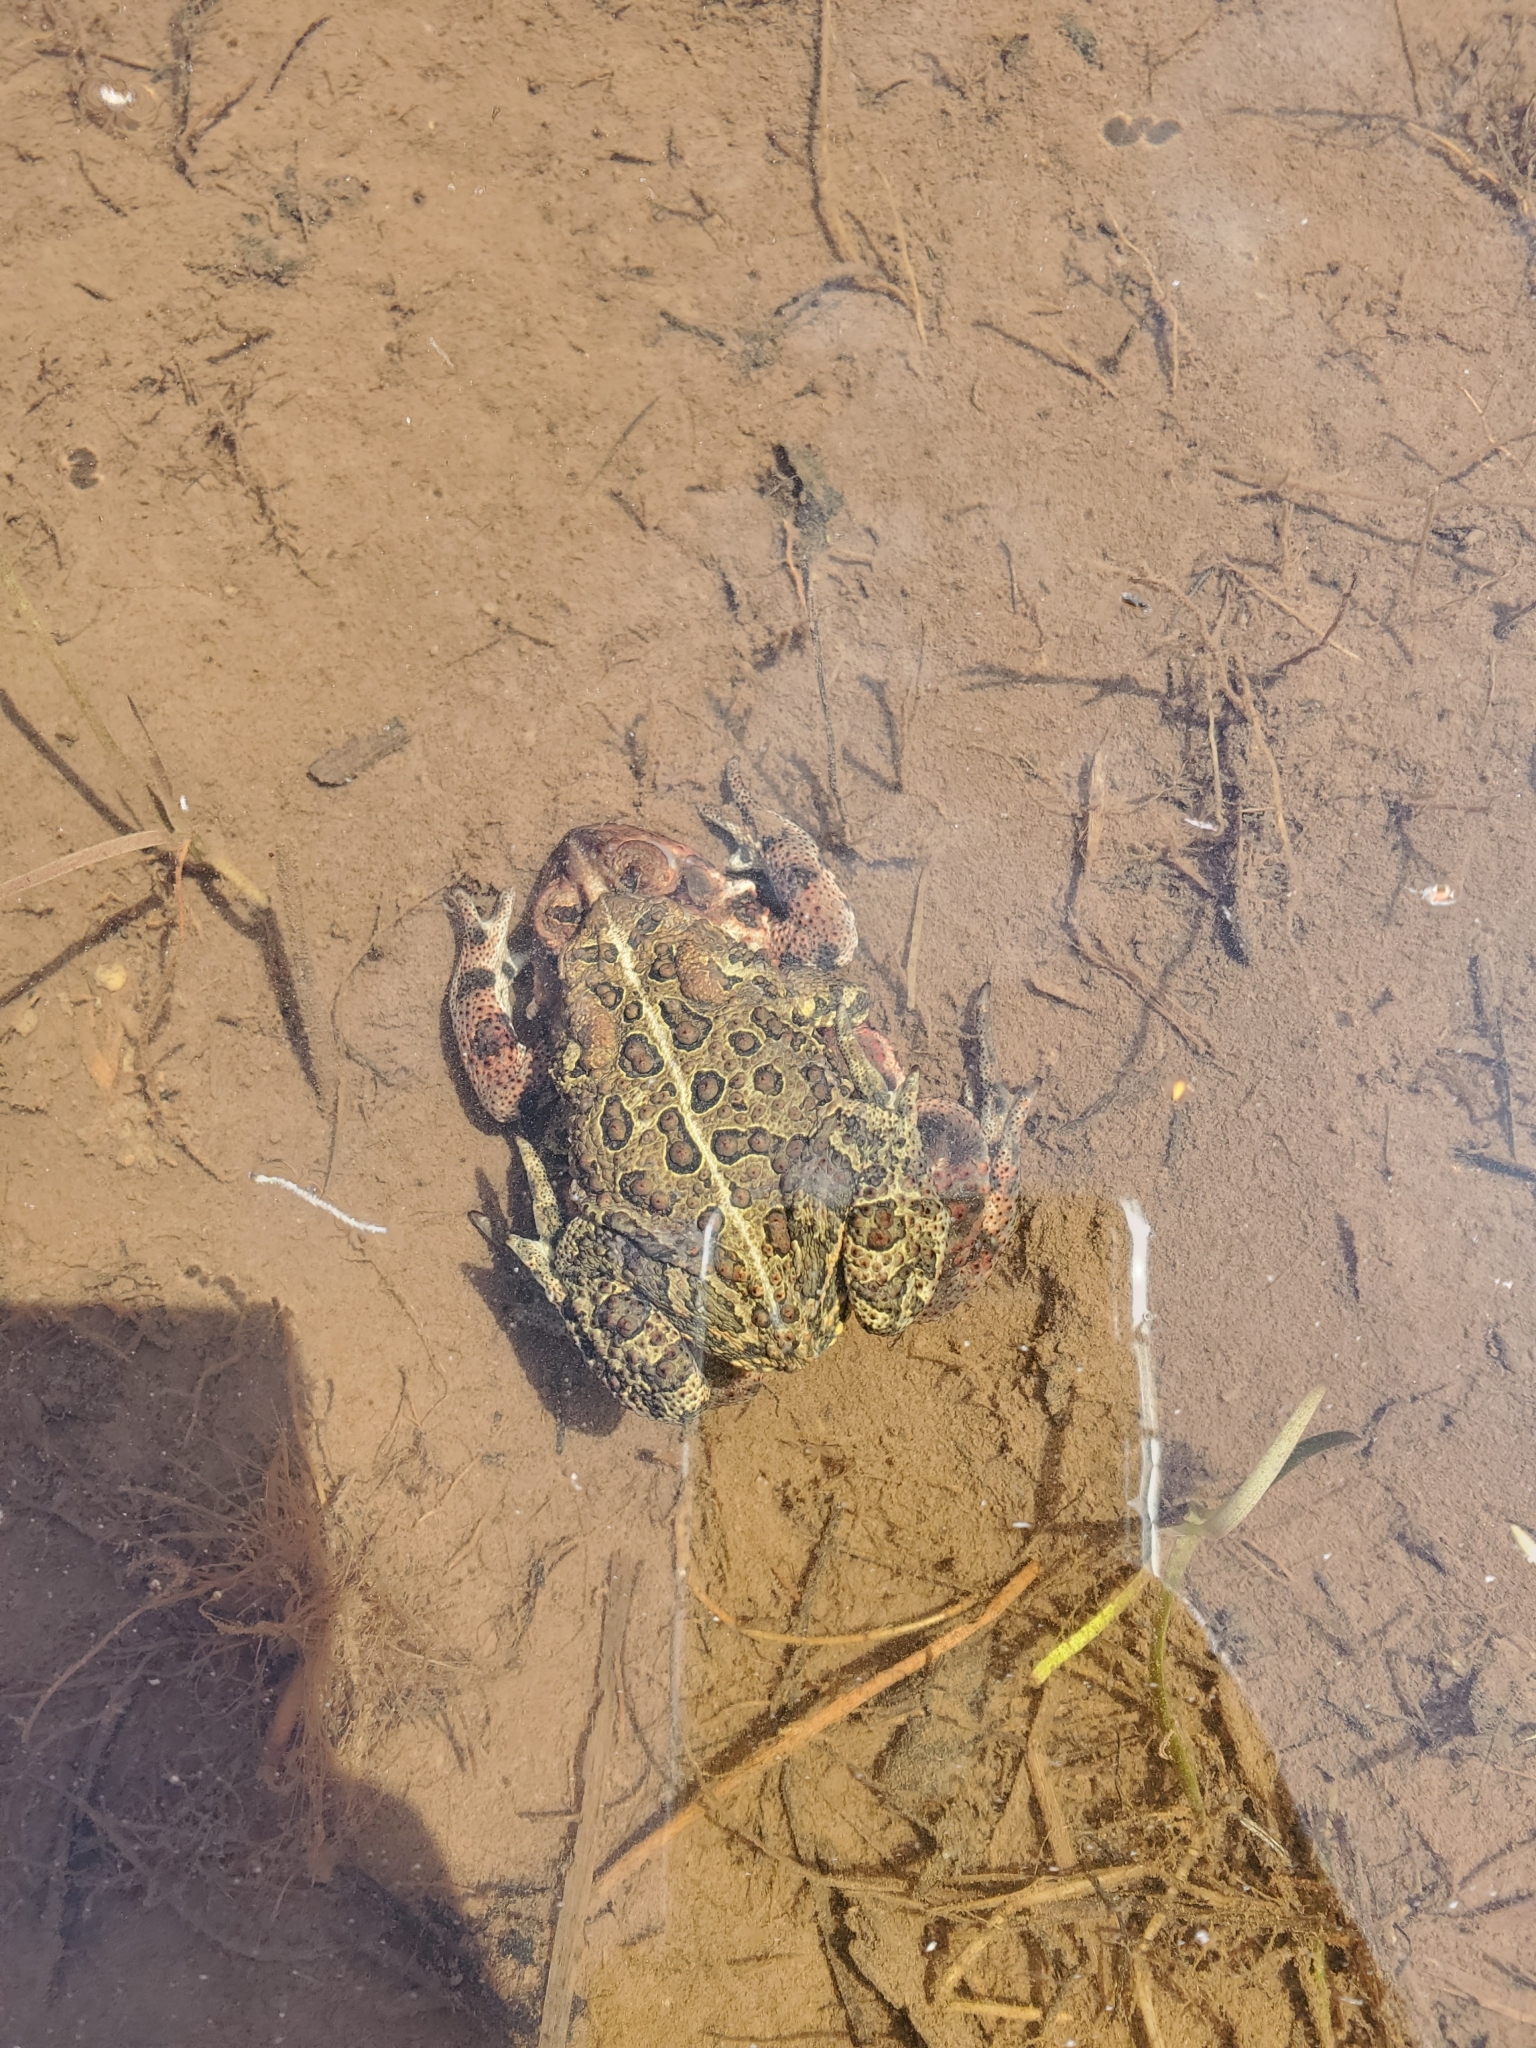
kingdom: Animalia
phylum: Chordata
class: Amphibia
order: Anura
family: Bufonidae
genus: Anaxyrus
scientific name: Anaxyrus americanus
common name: American toad
